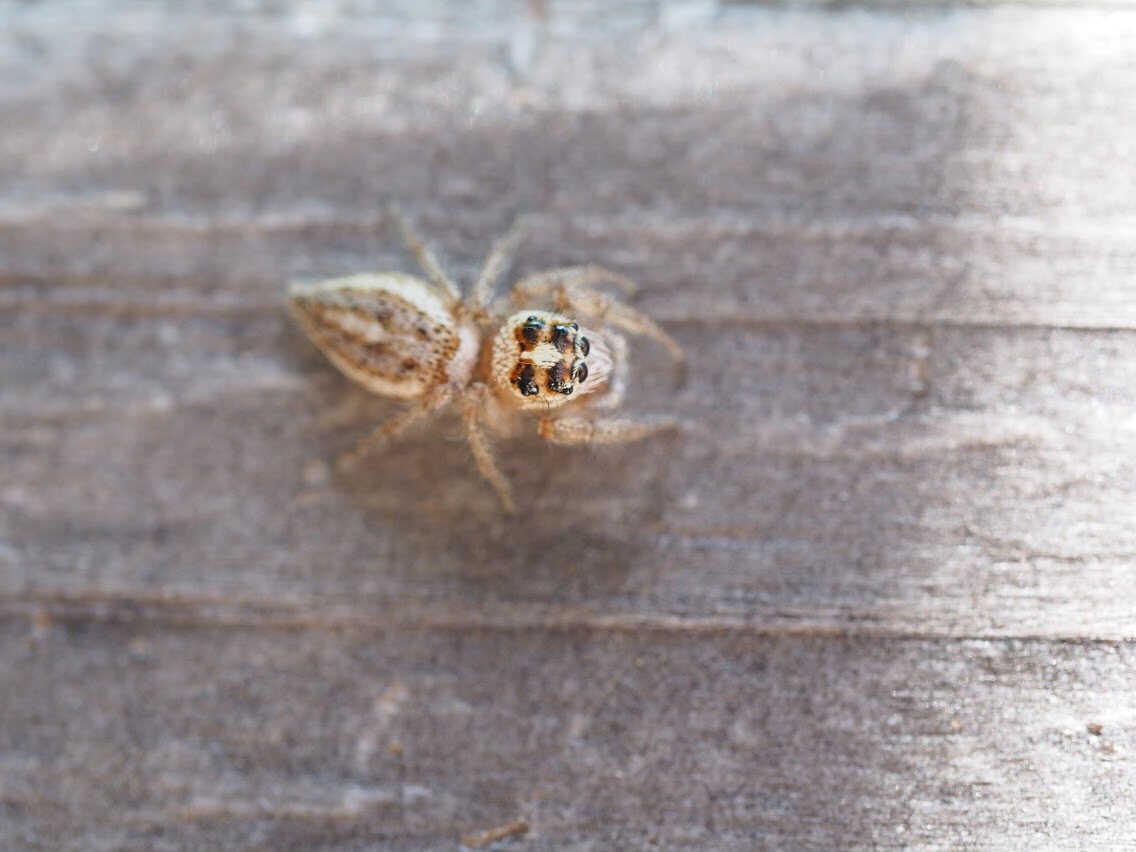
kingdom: Animalia
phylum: Arthropoda
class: Arachnida
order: Araneae
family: Salticidae
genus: Colonus
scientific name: Colonus hesperus
